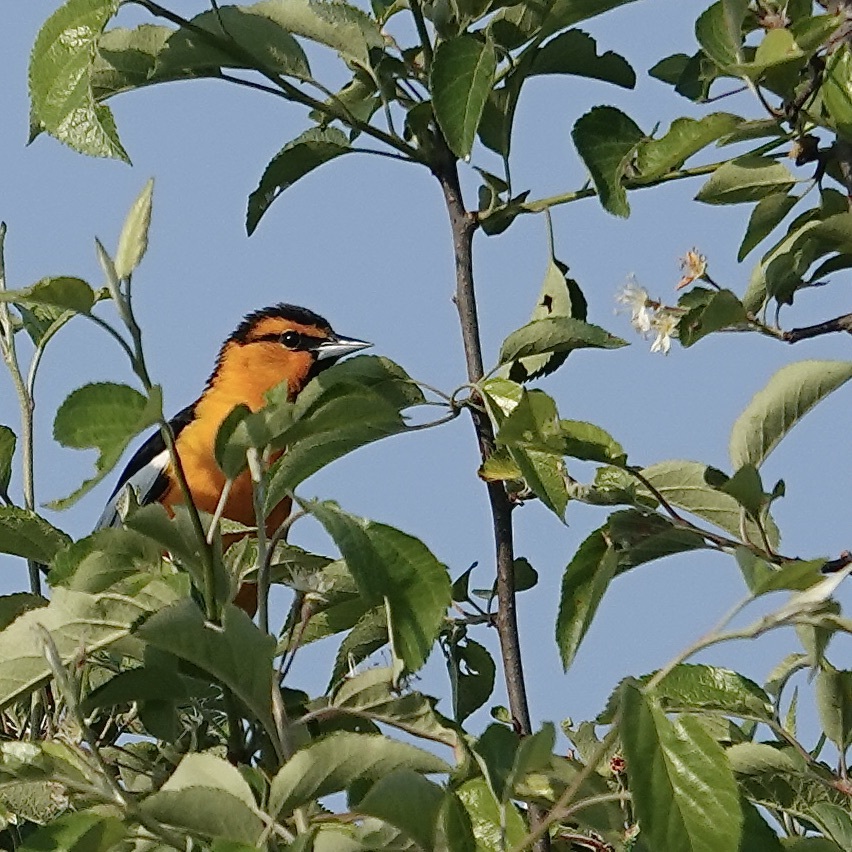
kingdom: Animalia
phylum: Chordata
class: Aves
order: Passeriformes
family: Icteridae
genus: Icterus
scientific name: Icterus bullockii
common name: Bullock's oriole
